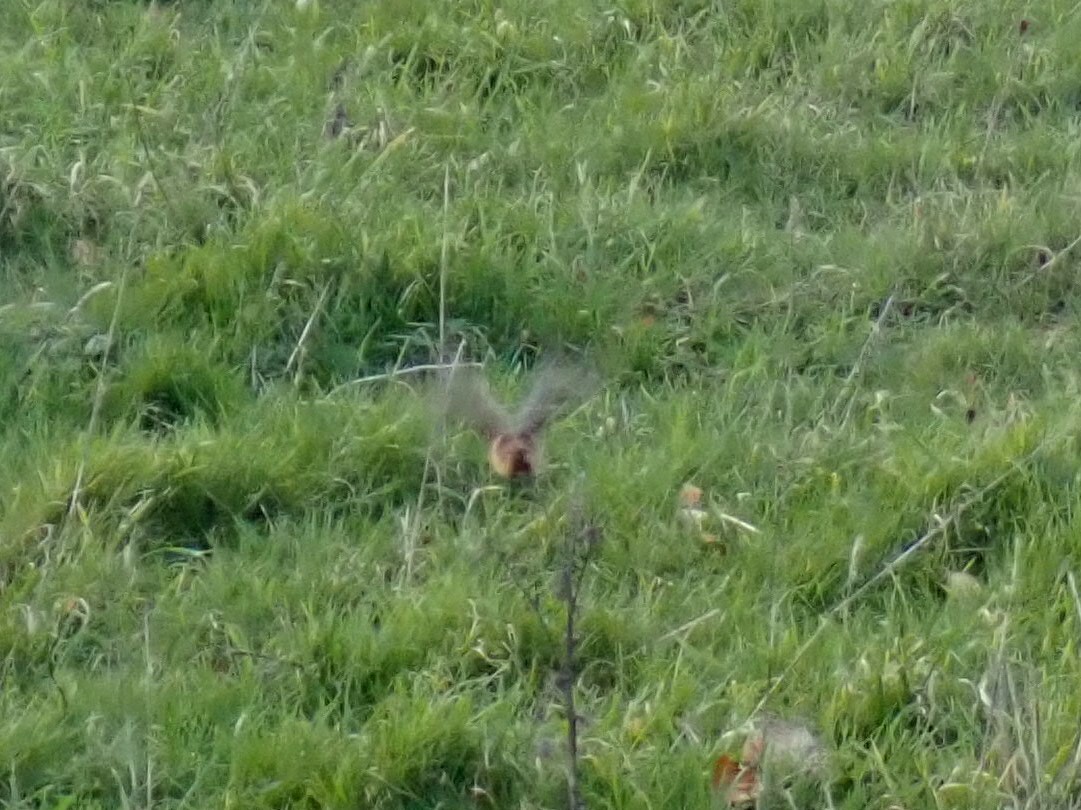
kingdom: Animalia
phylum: Chordata
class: Aves
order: Passeriformes
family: Muscicapidae
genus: Saxicola
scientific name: Saxicola rubicola
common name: European stonechat
